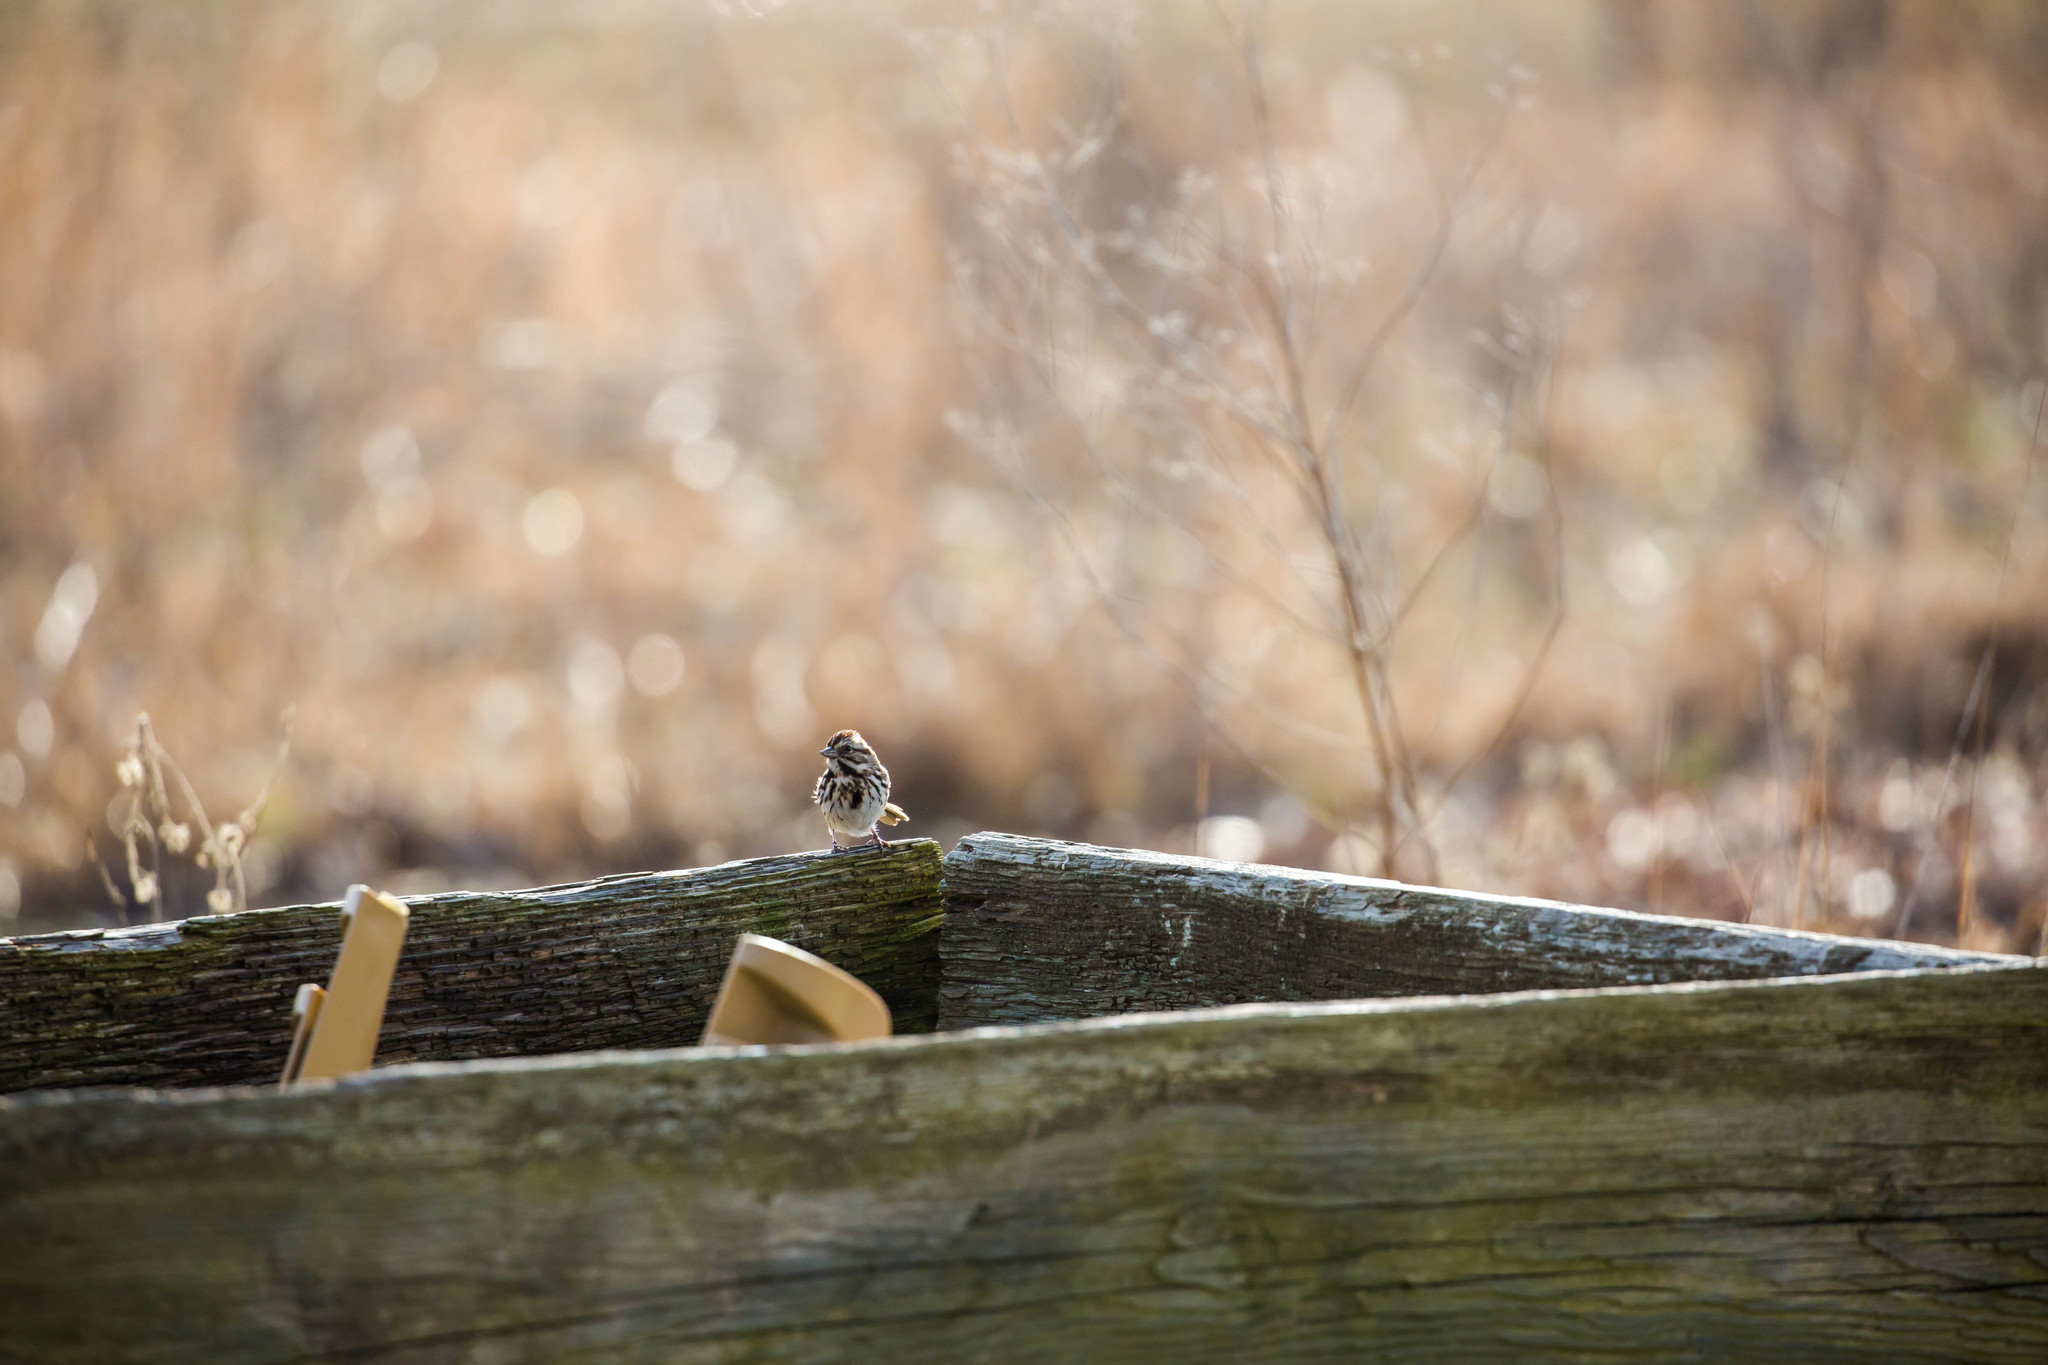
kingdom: Animalia
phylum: Chordata
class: Aves
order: Passeriformes
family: Passerellidae
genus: Melospiza
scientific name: Melospiza melodia
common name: Song sparrow
